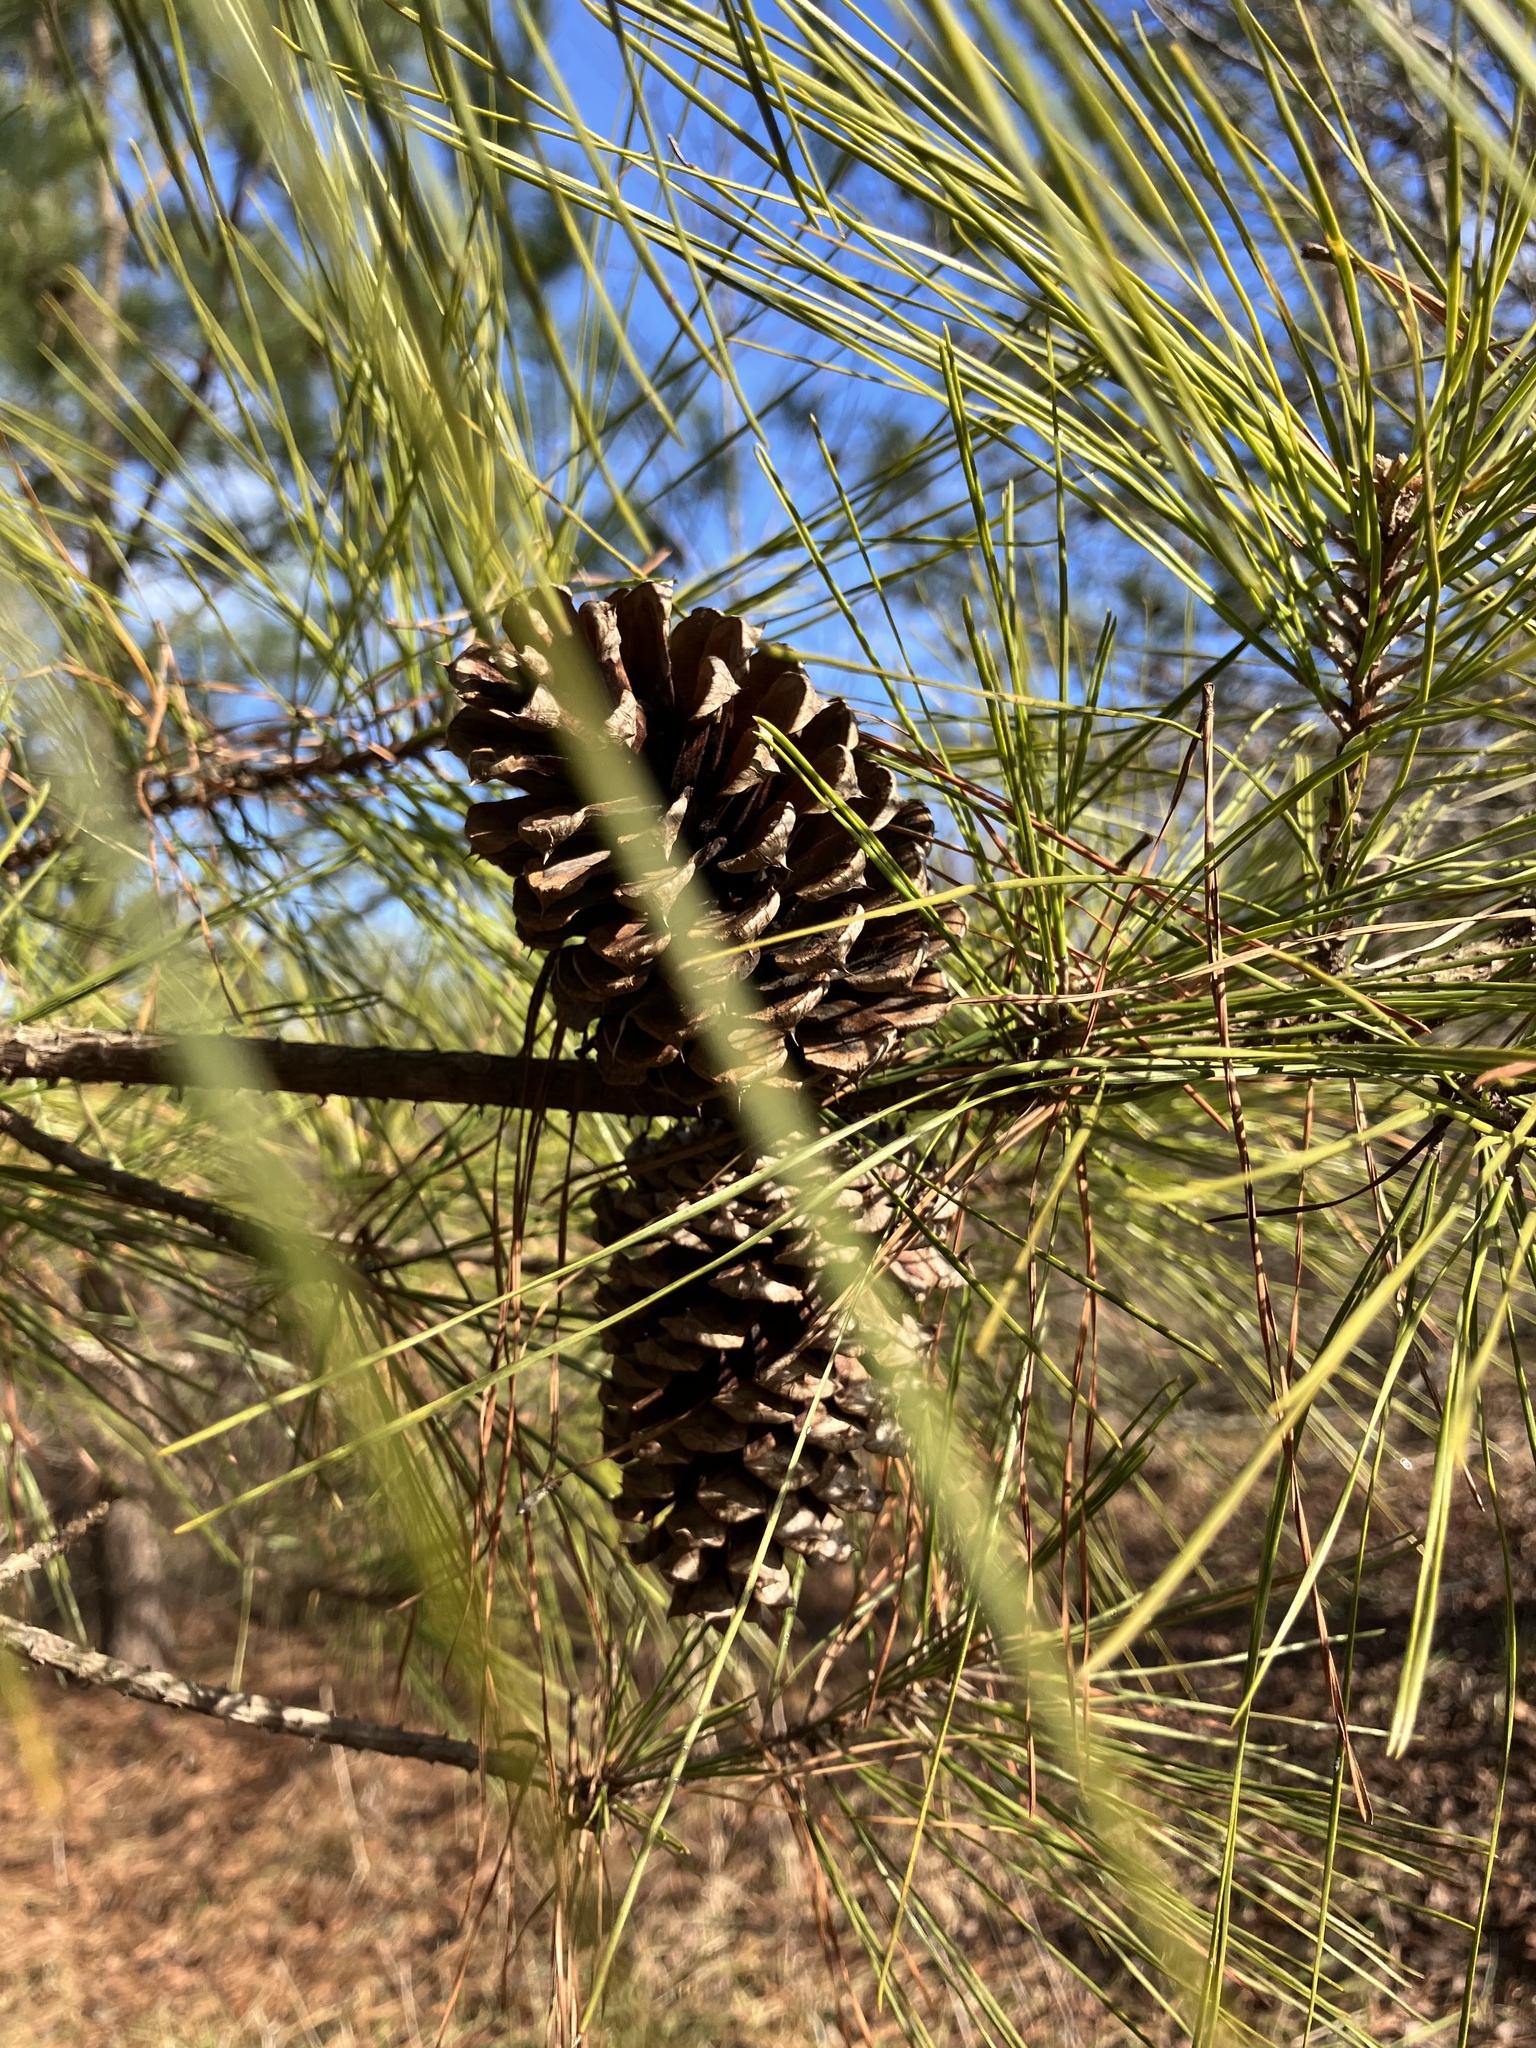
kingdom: Plantae
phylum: Tracheophyta
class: Pinopsida
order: Pinales
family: Pinaceae
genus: Pinus
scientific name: Pinus taeda
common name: Loblolly pine
